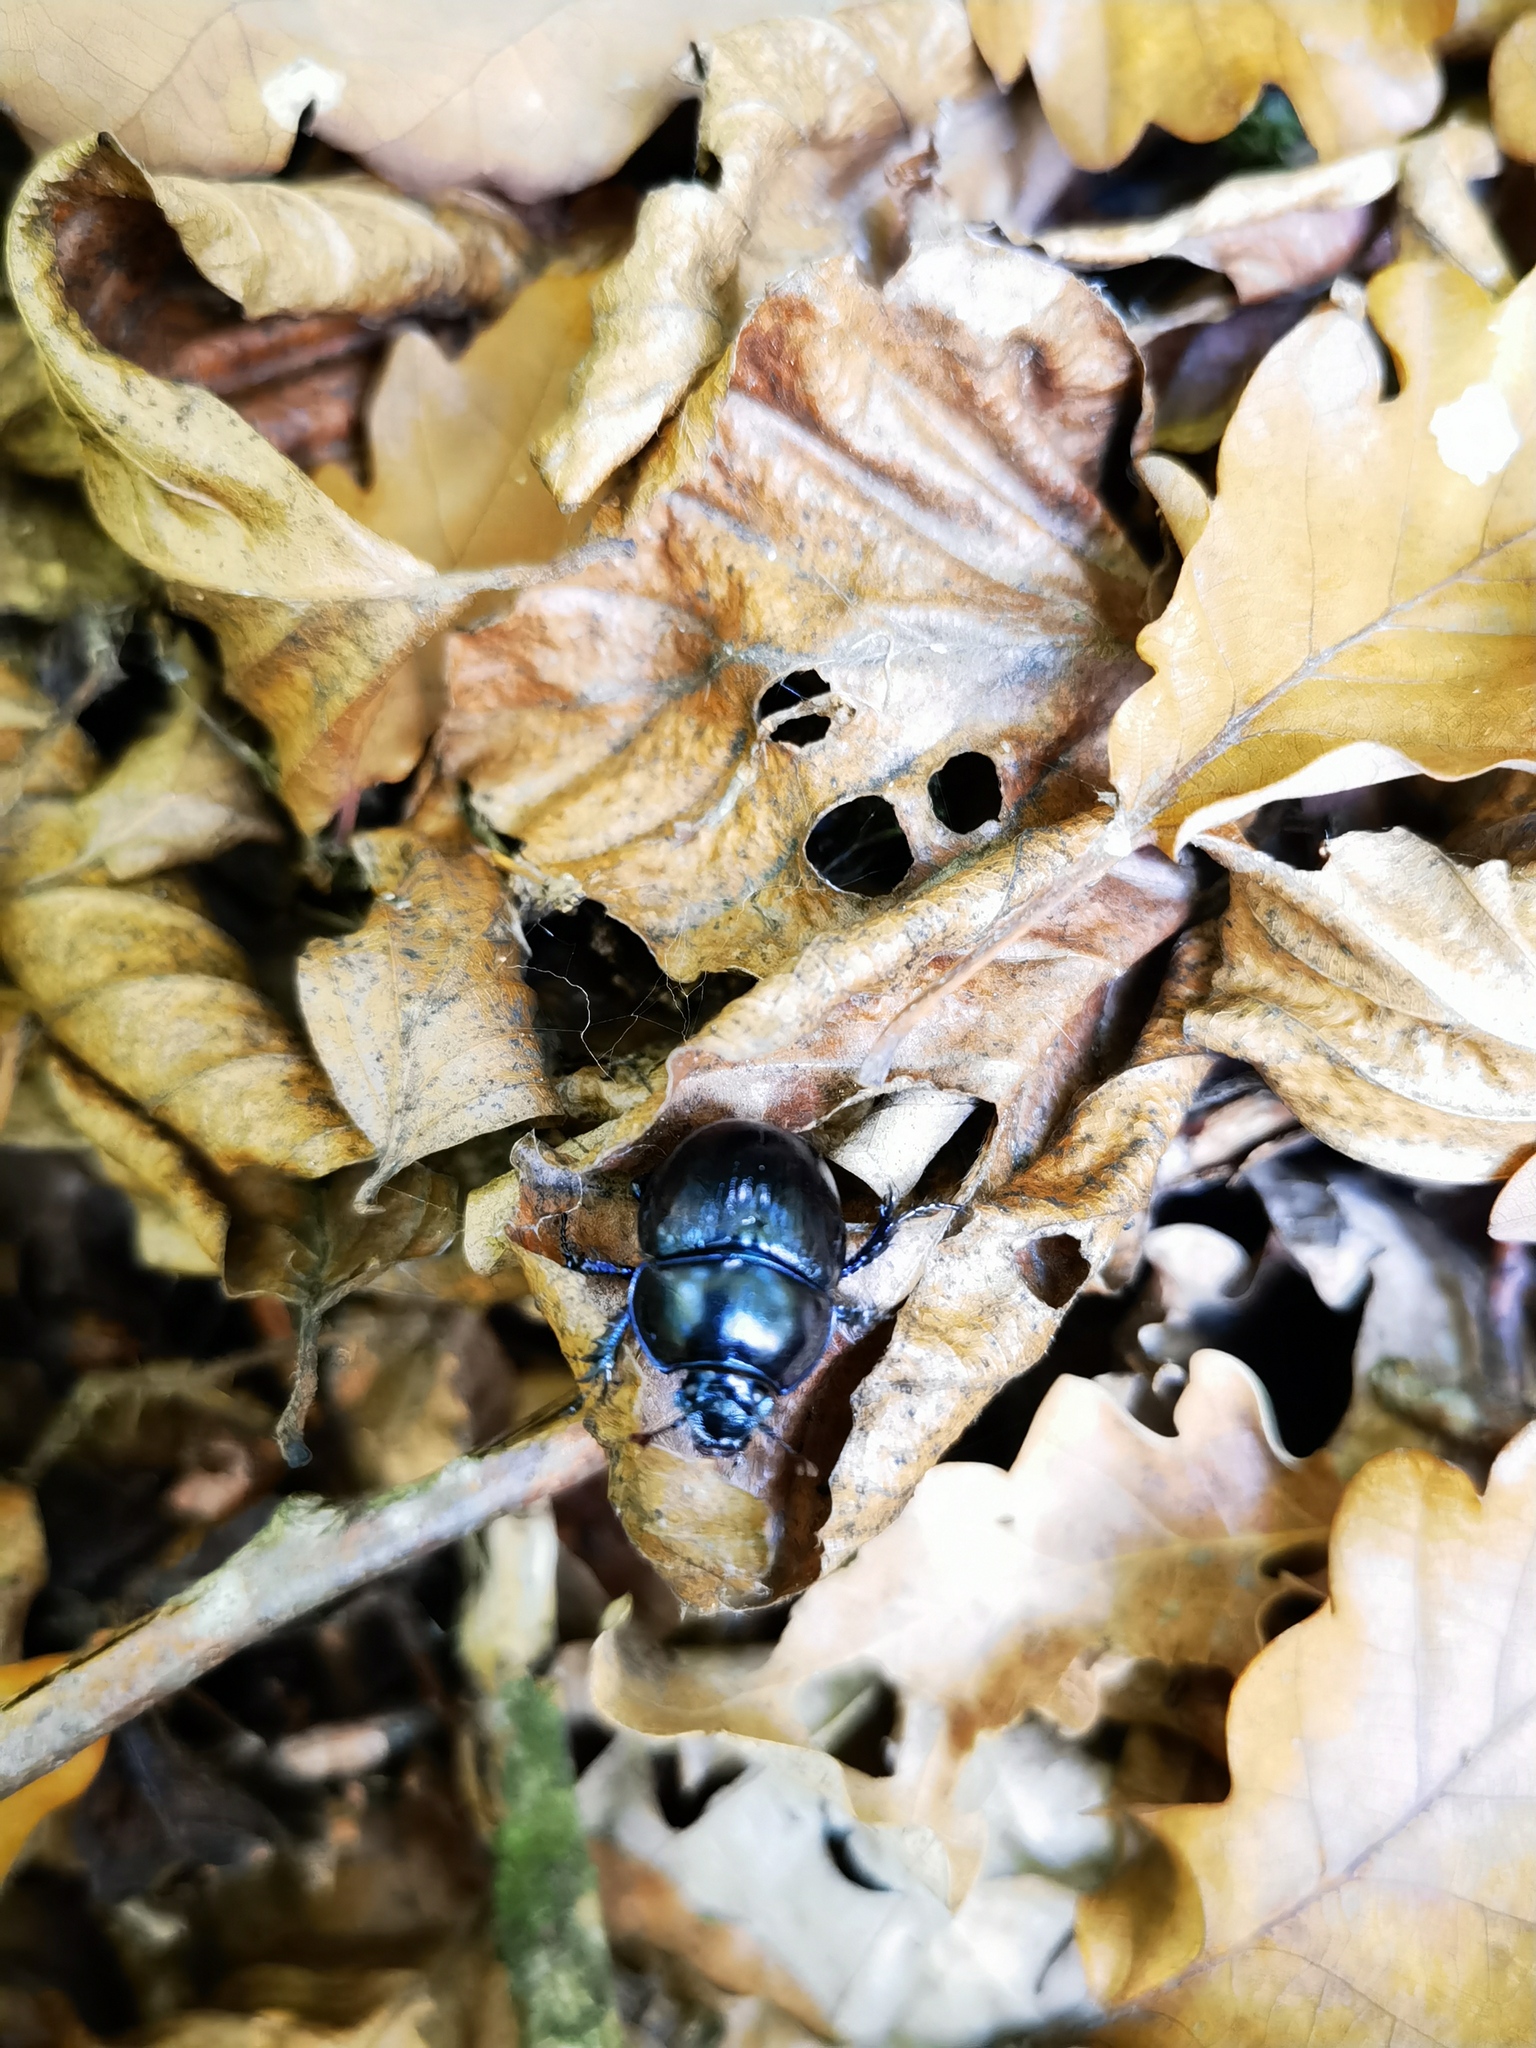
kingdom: Animalia
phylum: Arthropoda
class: Insecta
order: Coleoptera
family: Geotrupidae
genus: Anoplotrupes
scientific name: Anoplotrupes stercorosus
